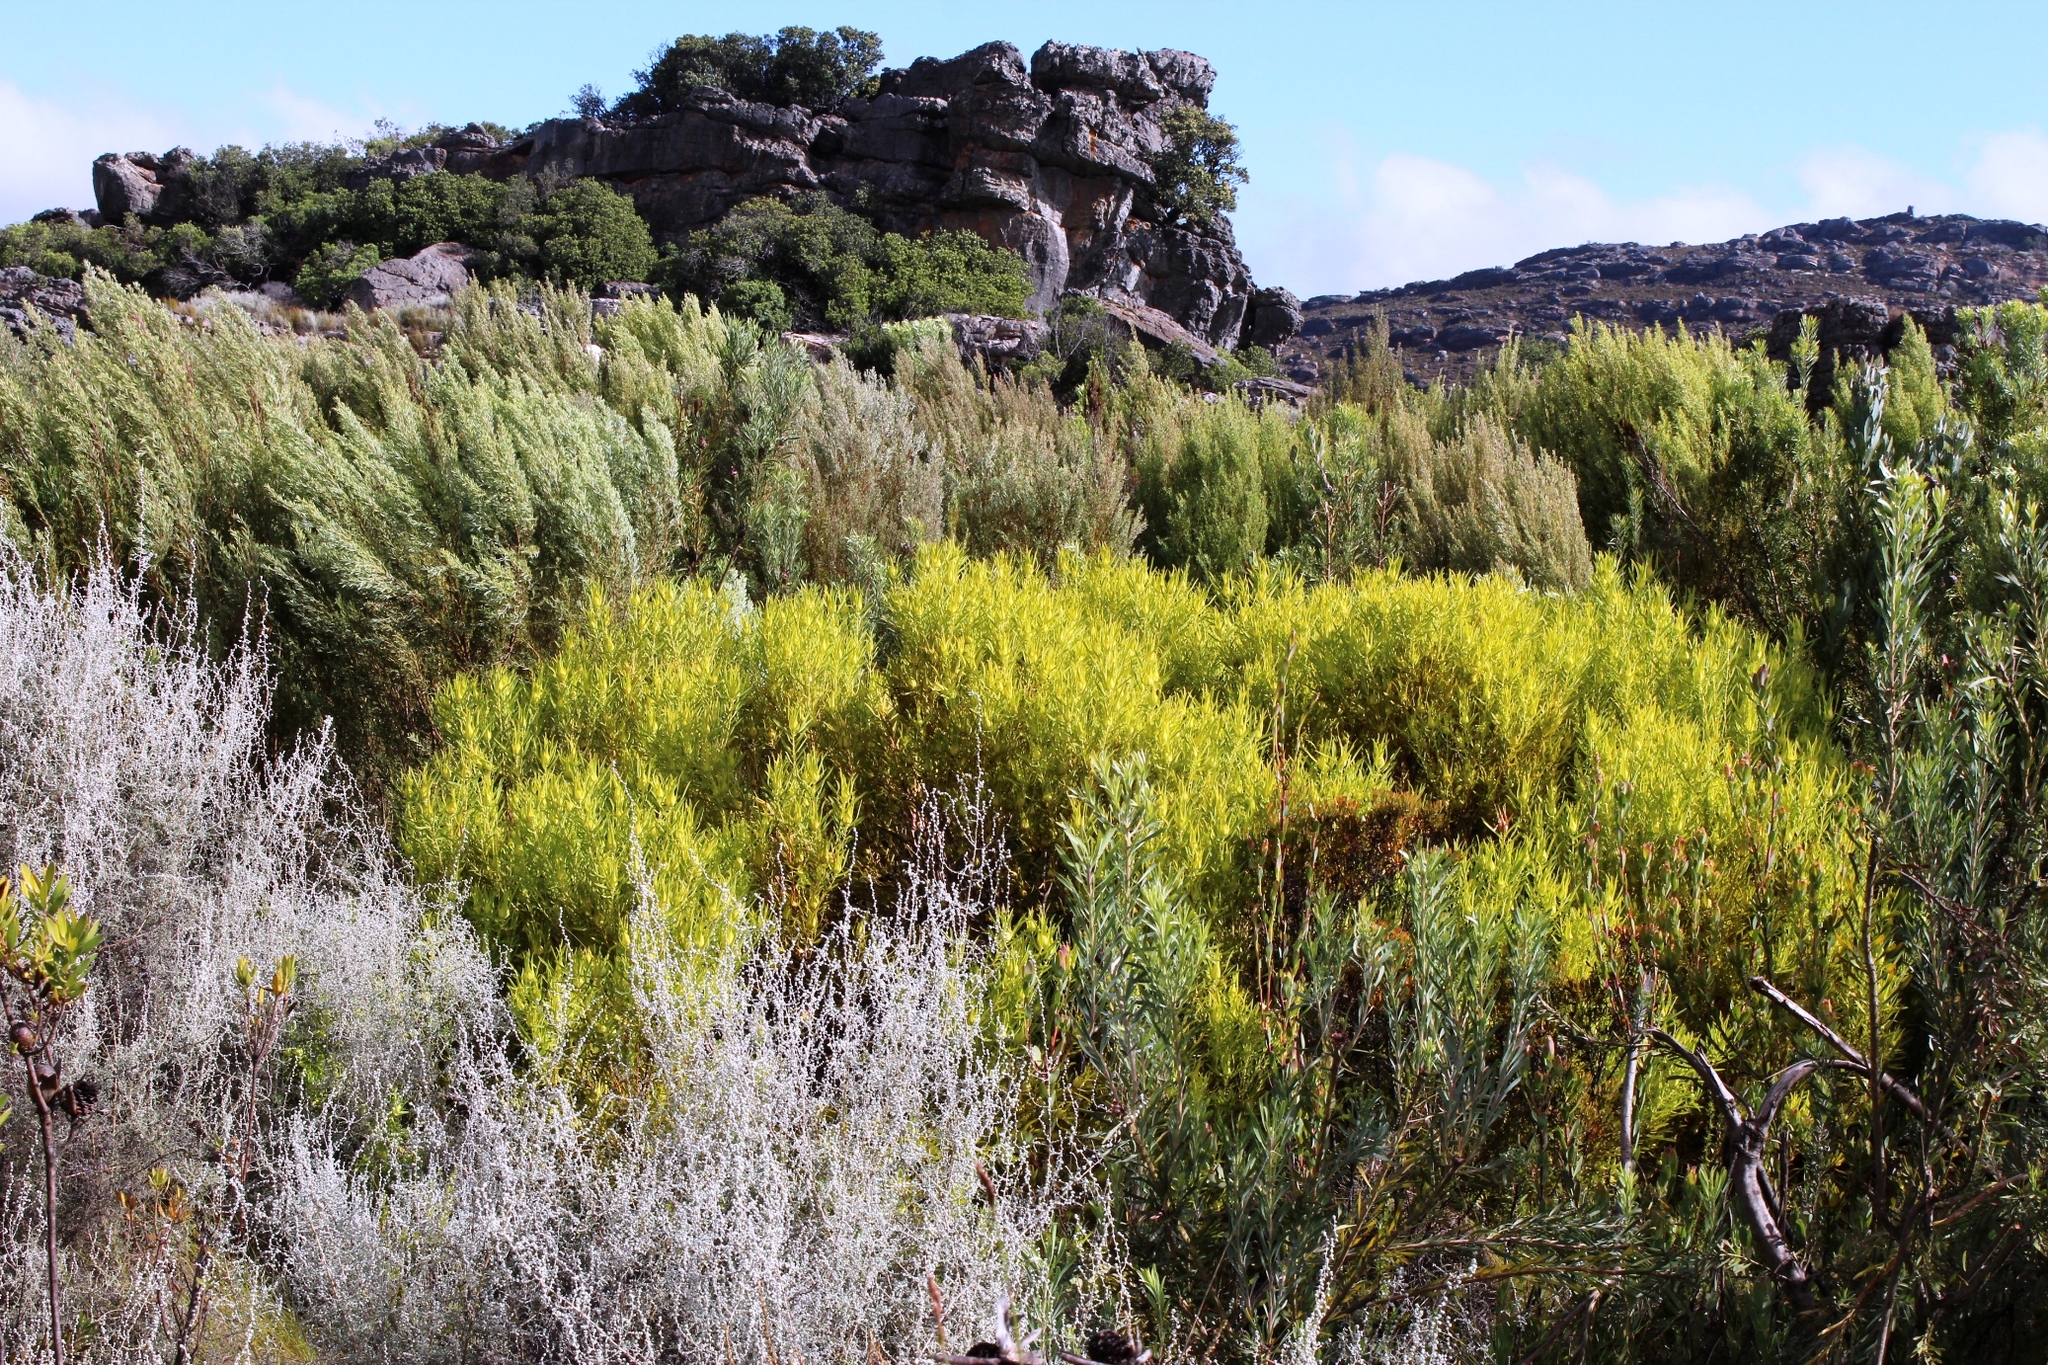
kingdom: Plantae
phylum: Tracheophyta
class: Magnoliopsida
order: Proteales
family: Proteaceae
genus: Leucadendron
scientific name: Leucadendron salignum
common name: Common sunshine conebush
